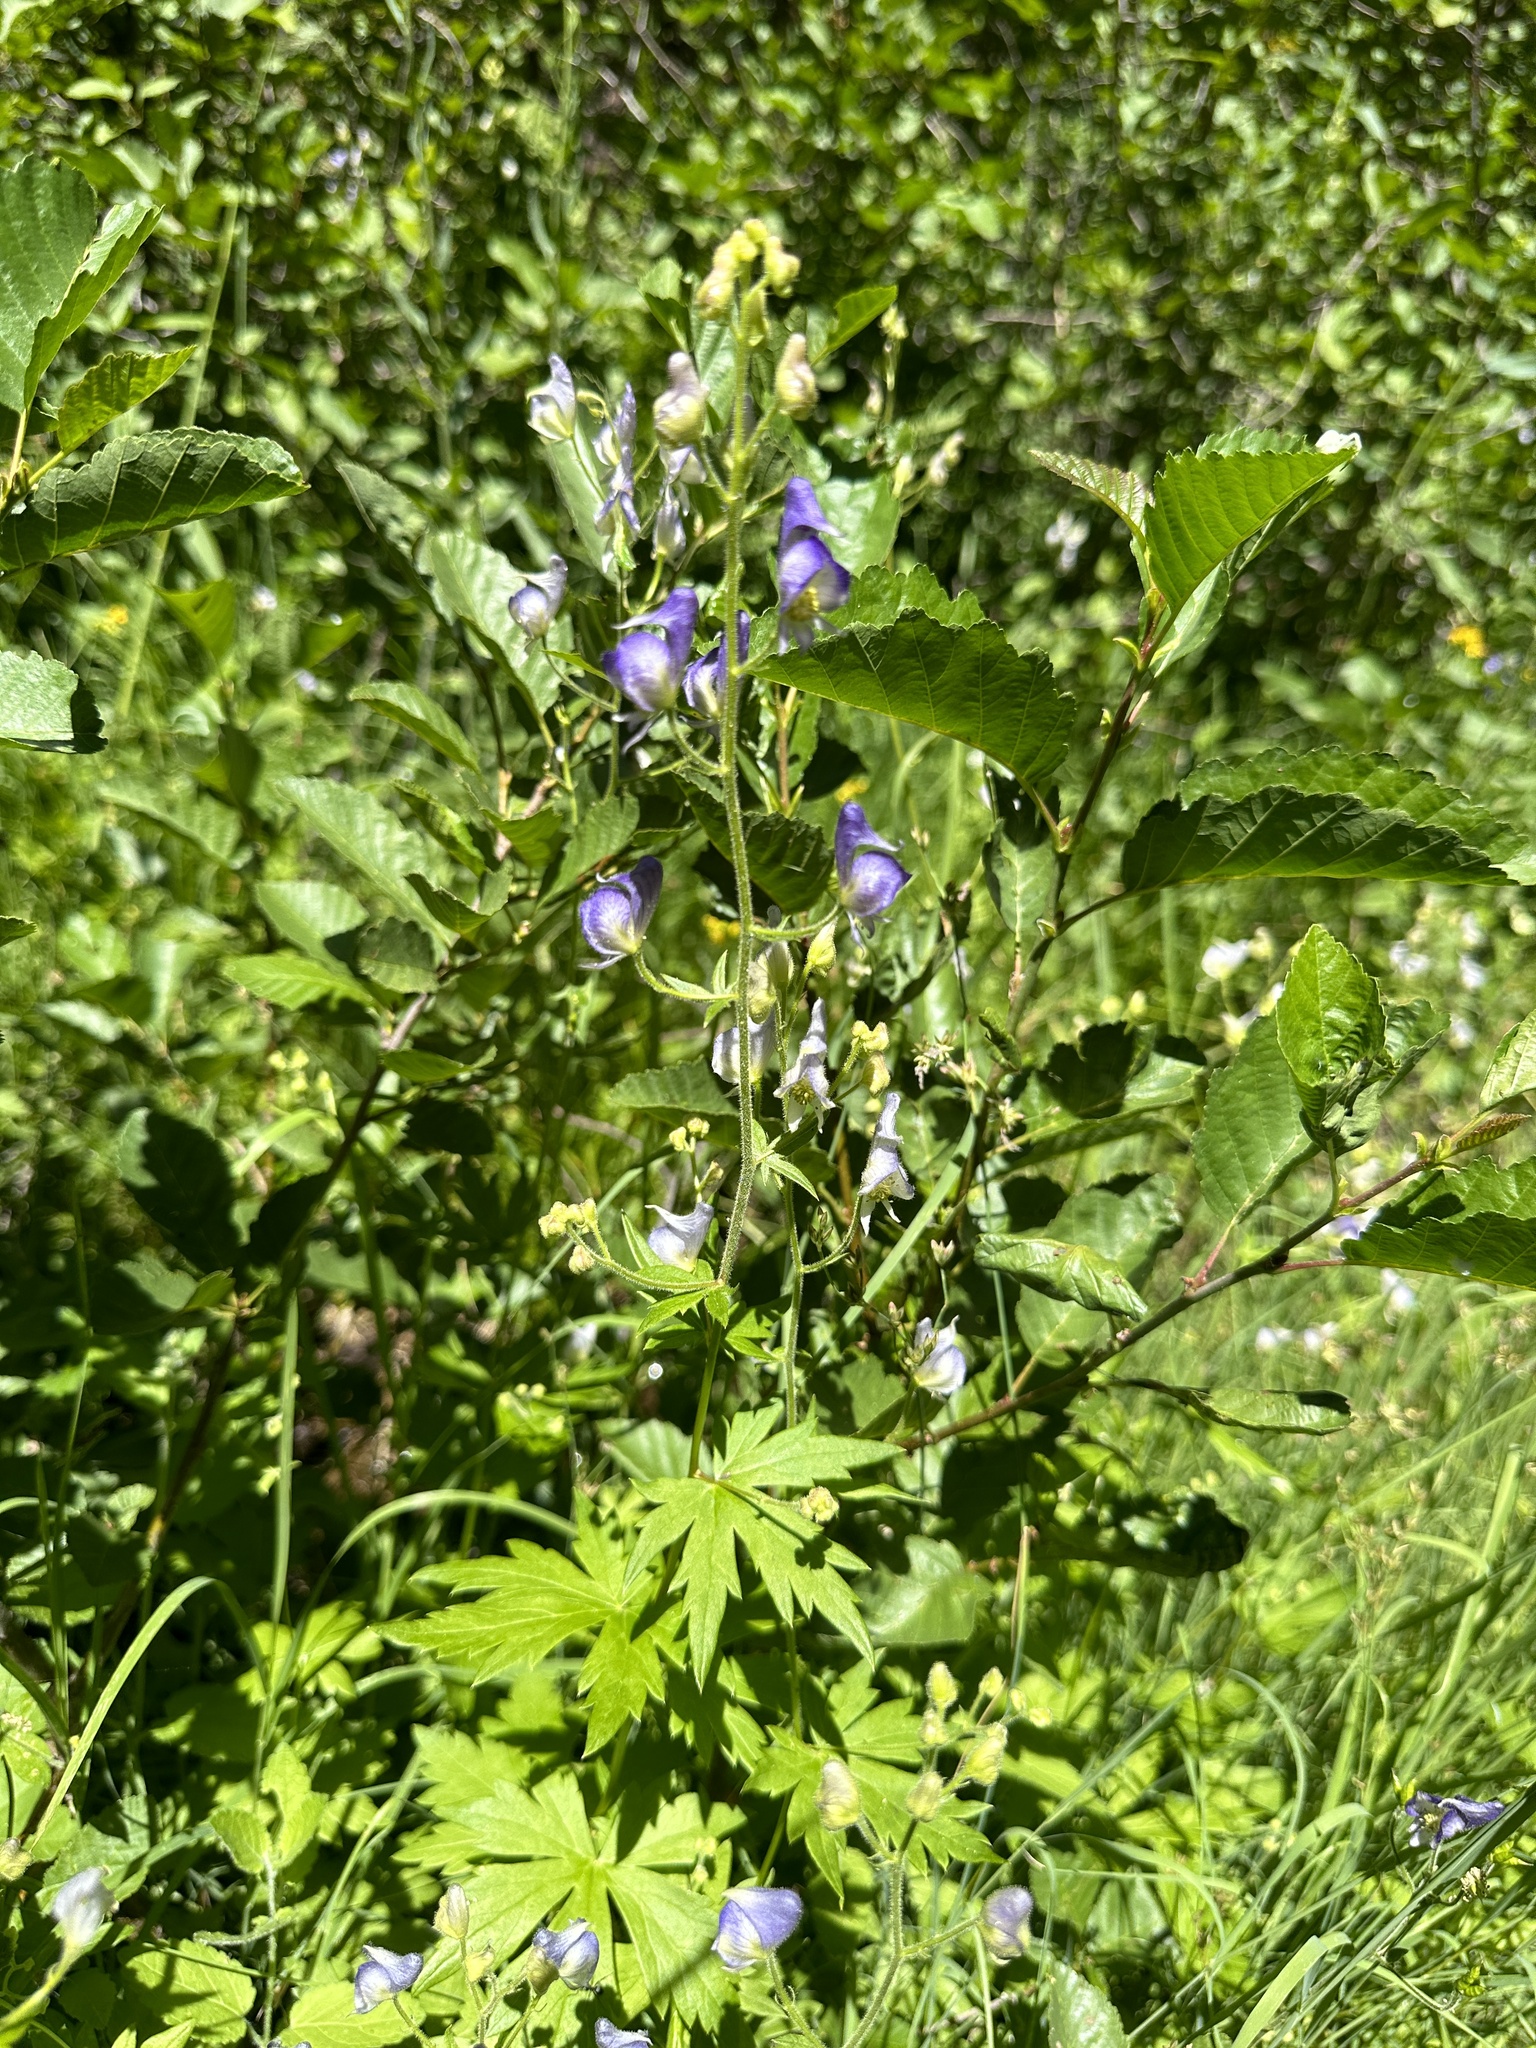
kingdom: Plantae
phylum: Tracheophyta
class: Magnoliopsida
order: Ranunculales
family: Ranunculaceae
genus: Aconitum
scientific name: Aconitum columbianum
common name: Columbia aconite
